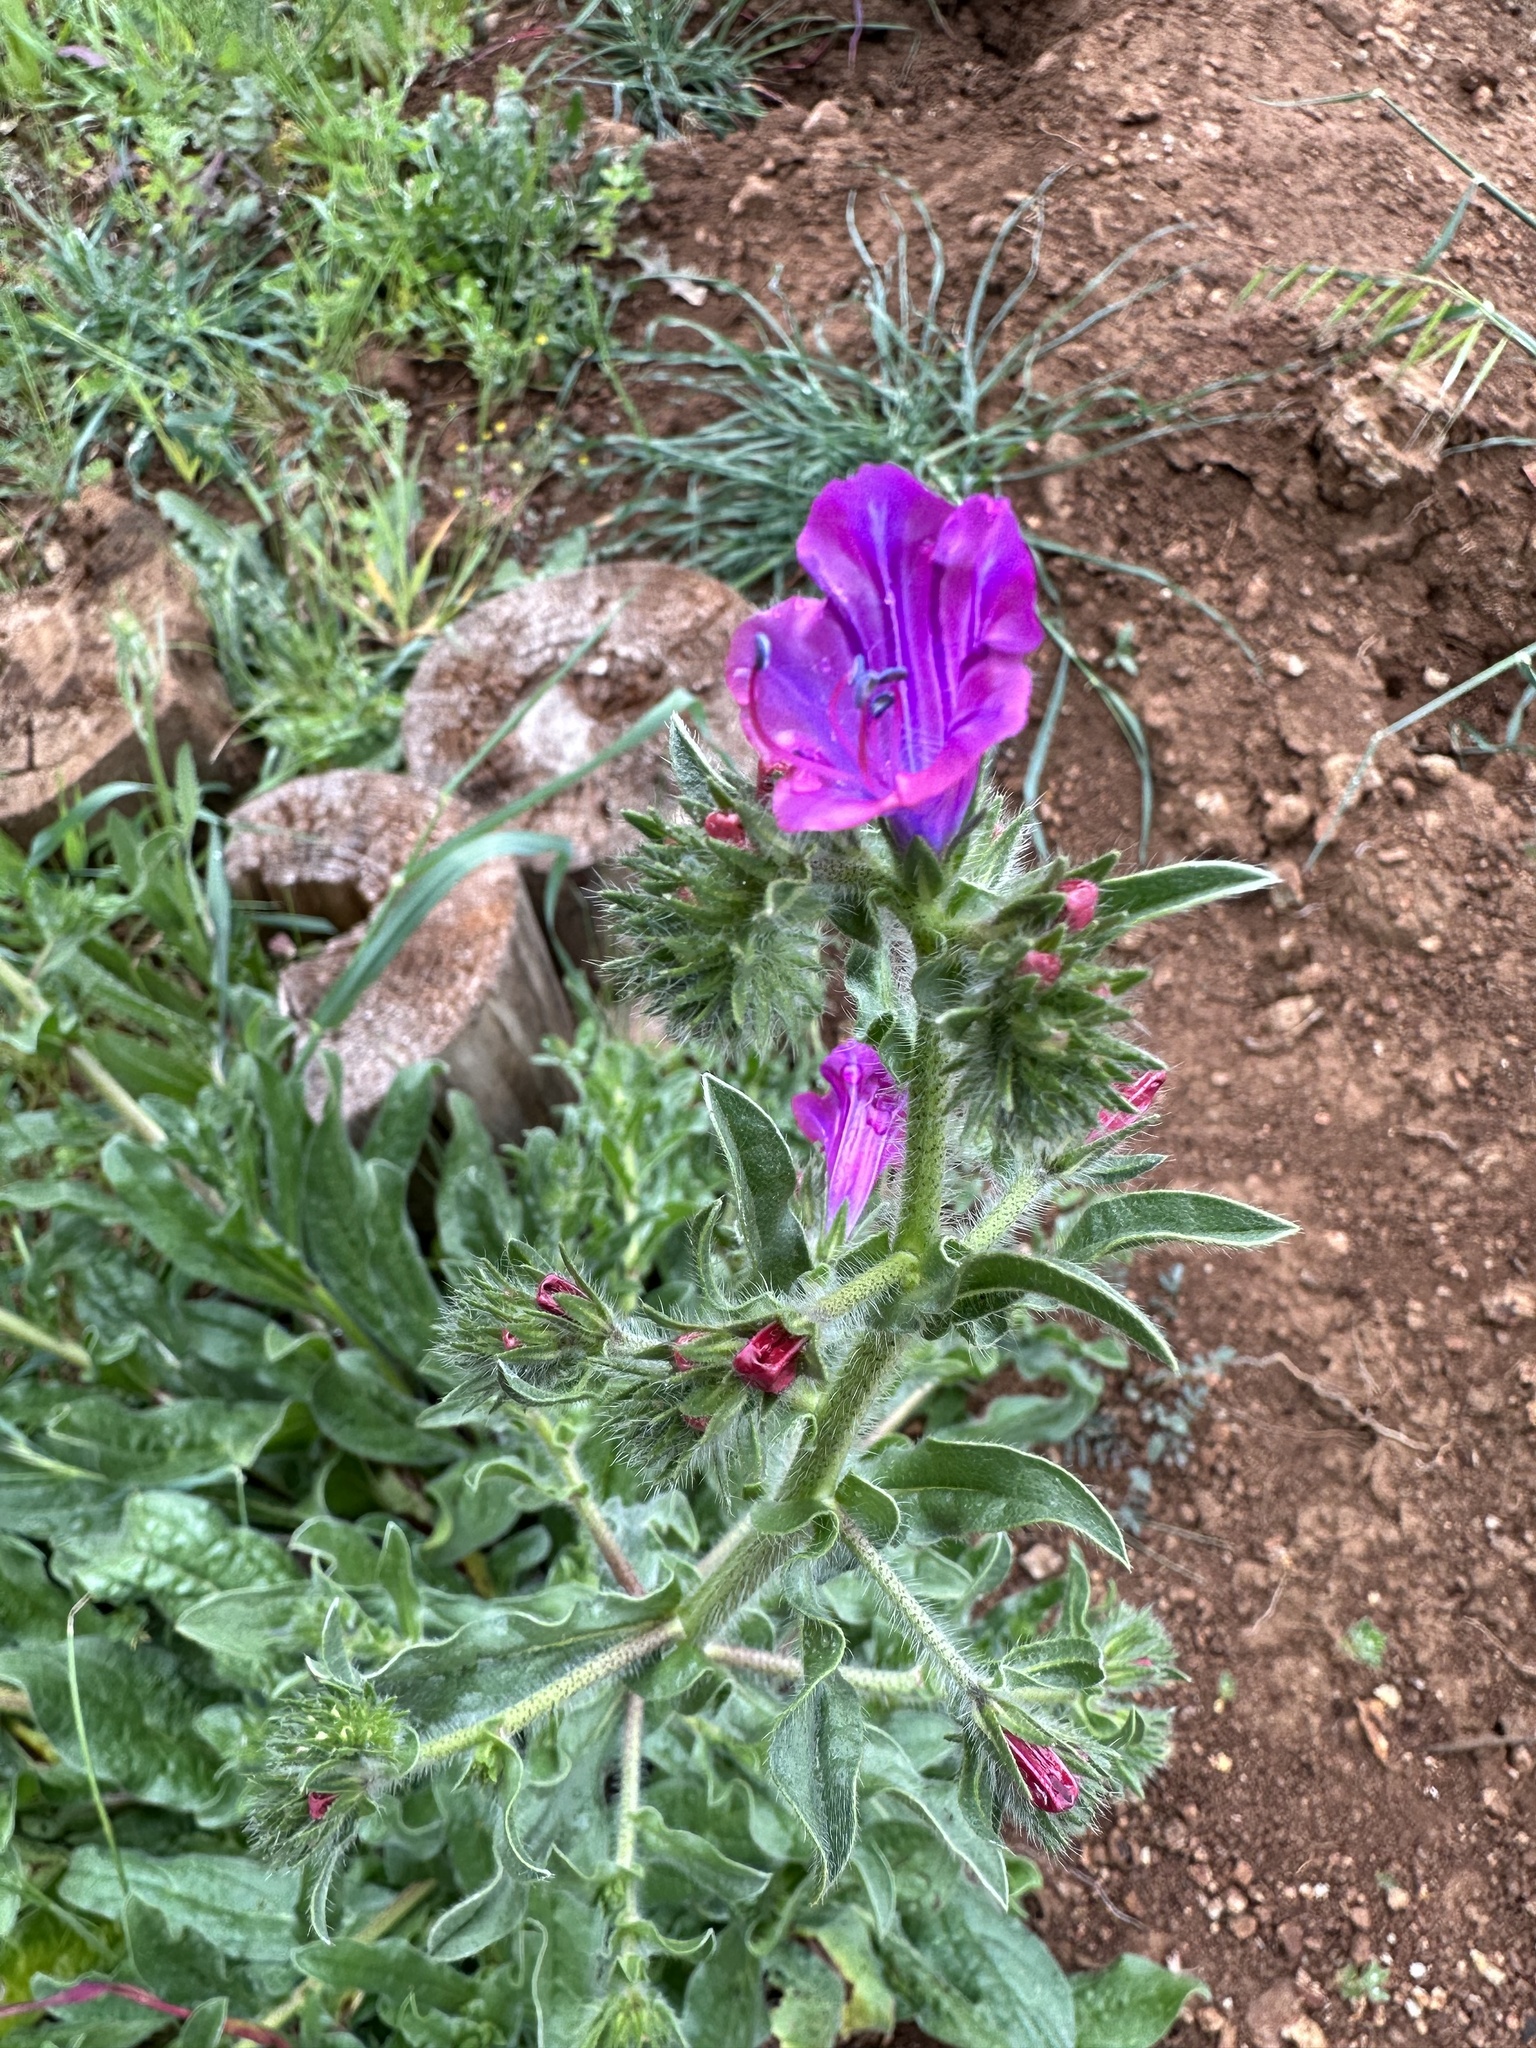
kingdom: Plantae
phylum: Tracheophyta
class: Magnoliopsida
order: Boraginales
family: Boraginaceae
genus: Echium
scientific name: Echium plantagineum
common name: Purple viper's-bugloss
